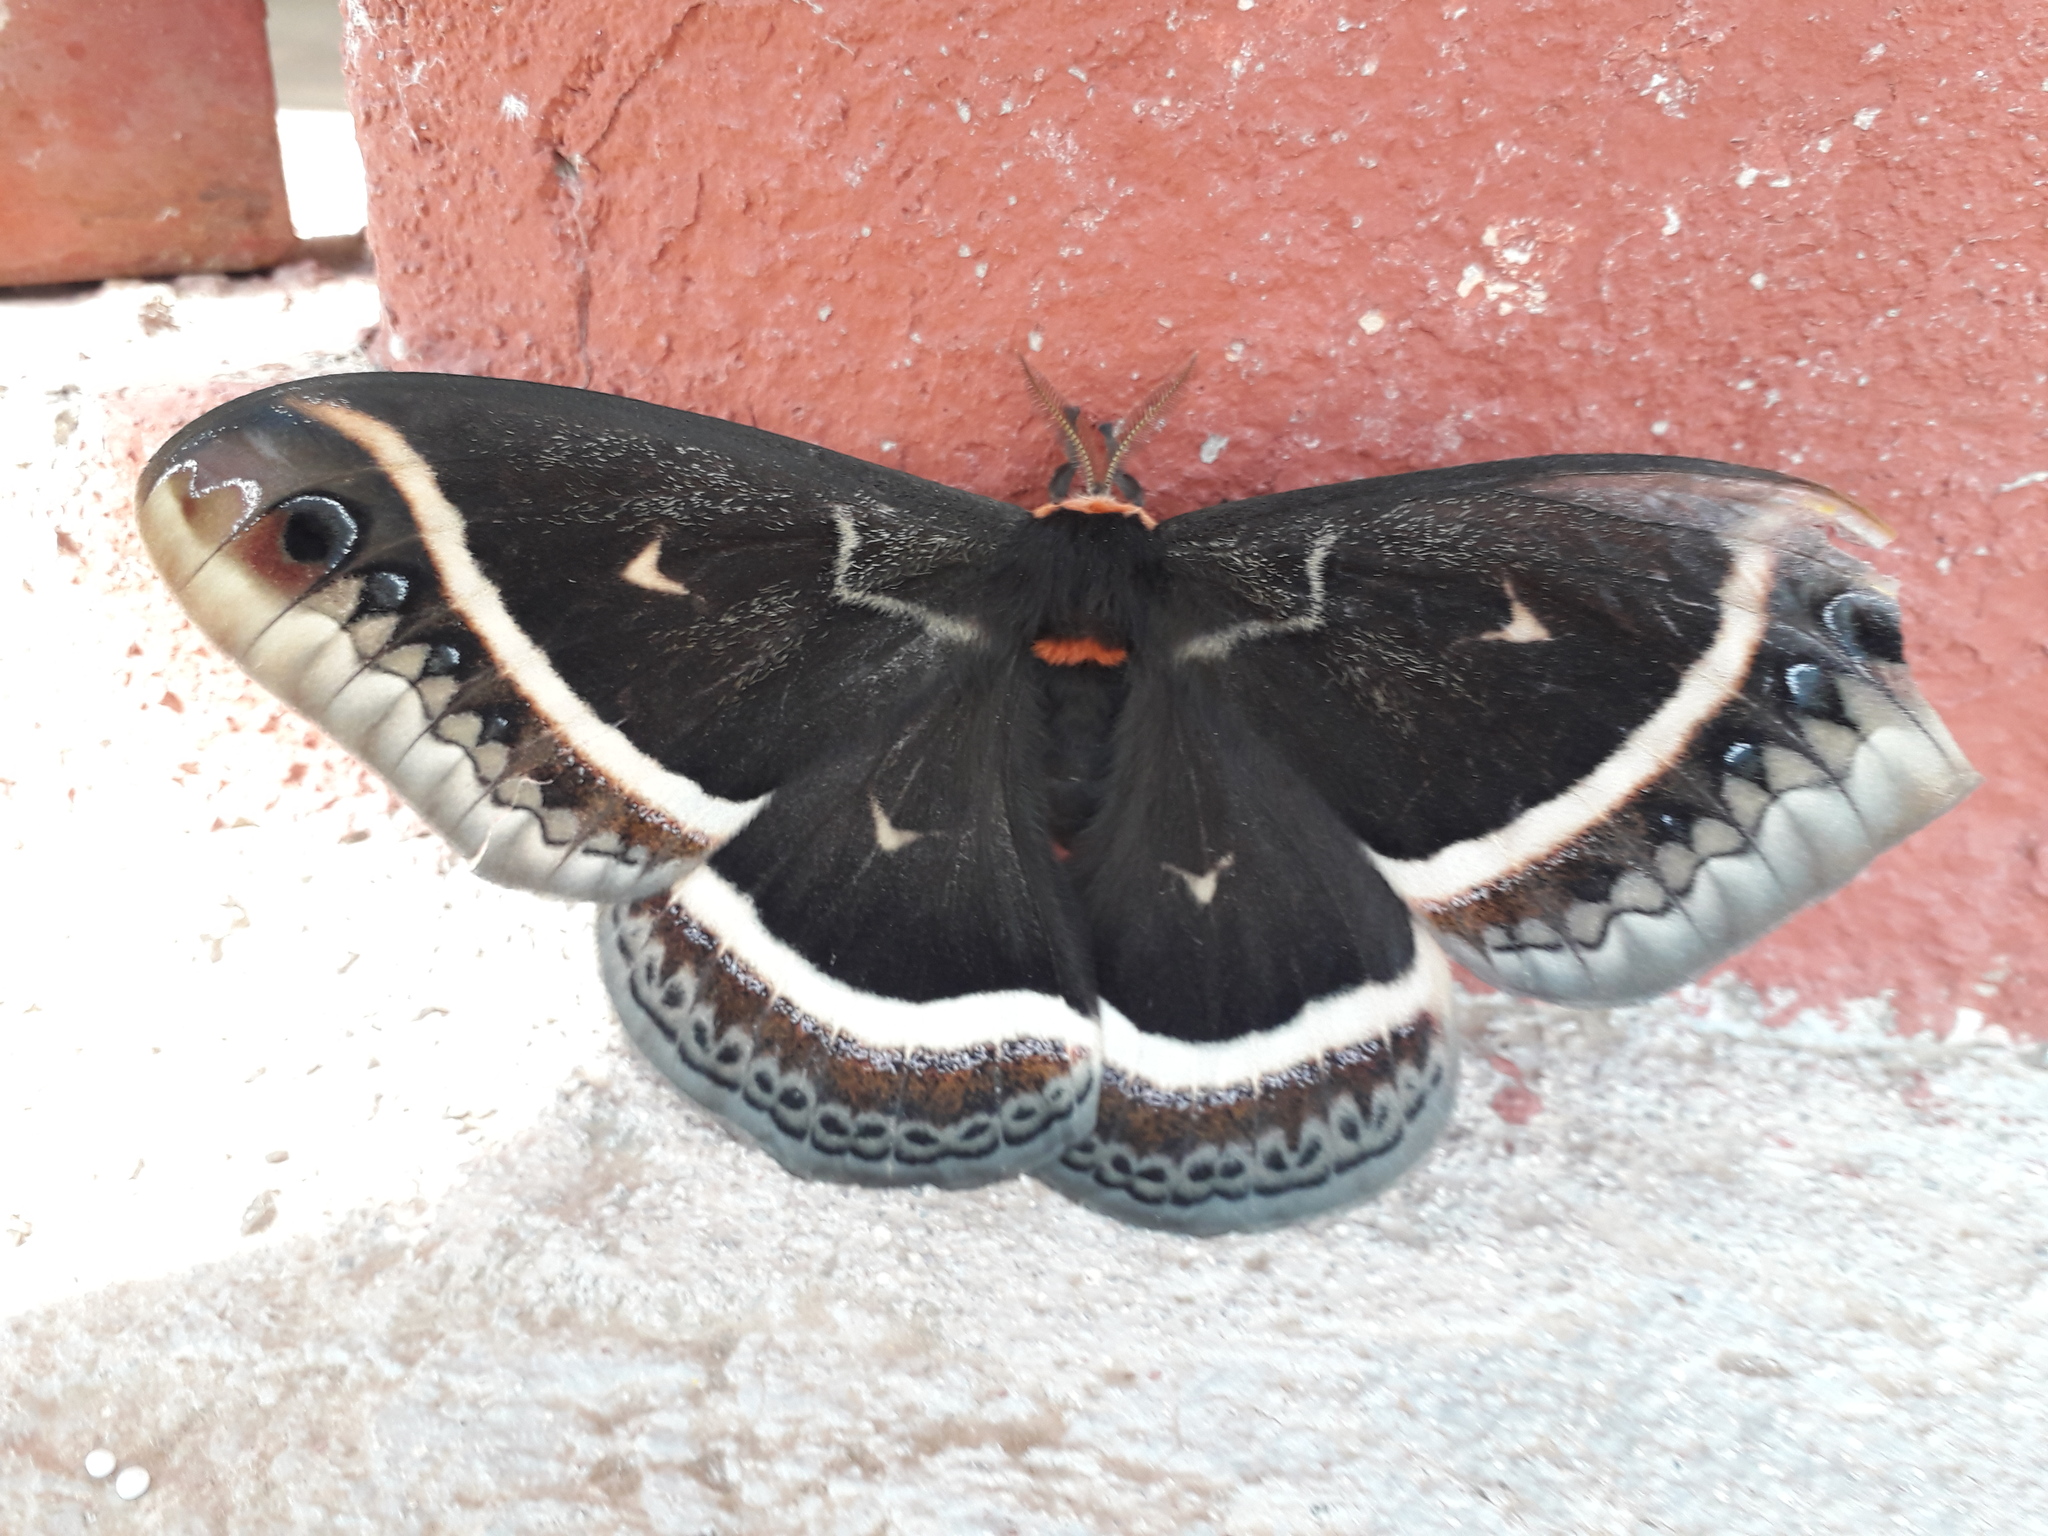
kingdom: Animalia
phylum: Arthropoda
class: Insecta
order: Lepidoptera
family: Saturniidae
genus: Eupackardia
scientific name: Eupackardia calleta
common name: Calleta silkmoth
